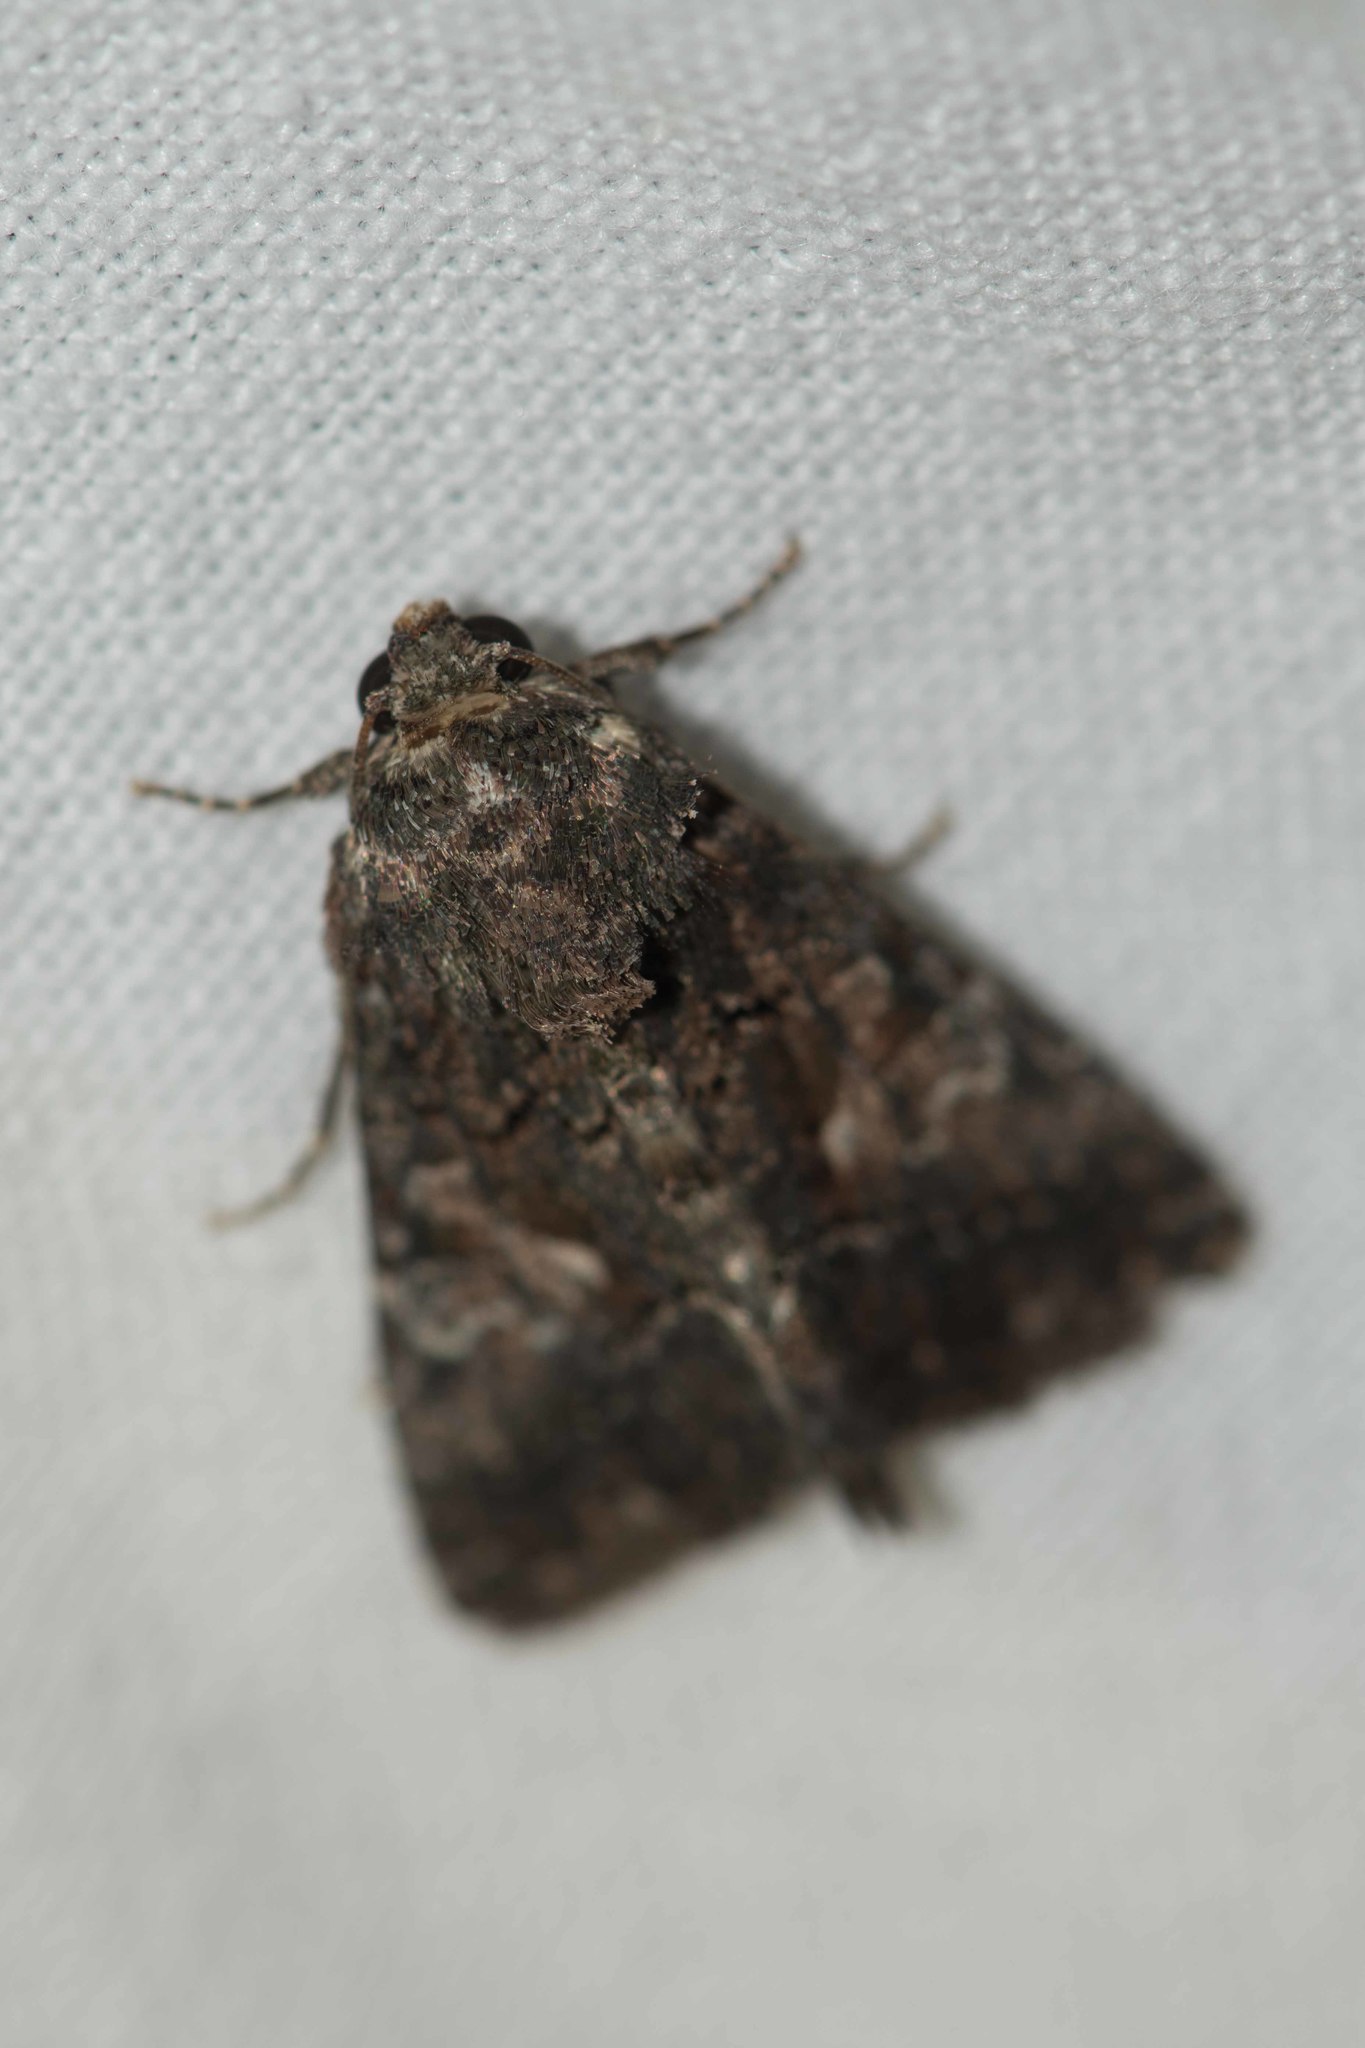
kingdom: Animalia
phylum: Arthropoda
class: Insecta
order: Lepidoptera
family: Noctuidae
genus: Aedia
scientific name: Aedia leucomelas
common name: Sorcerer
